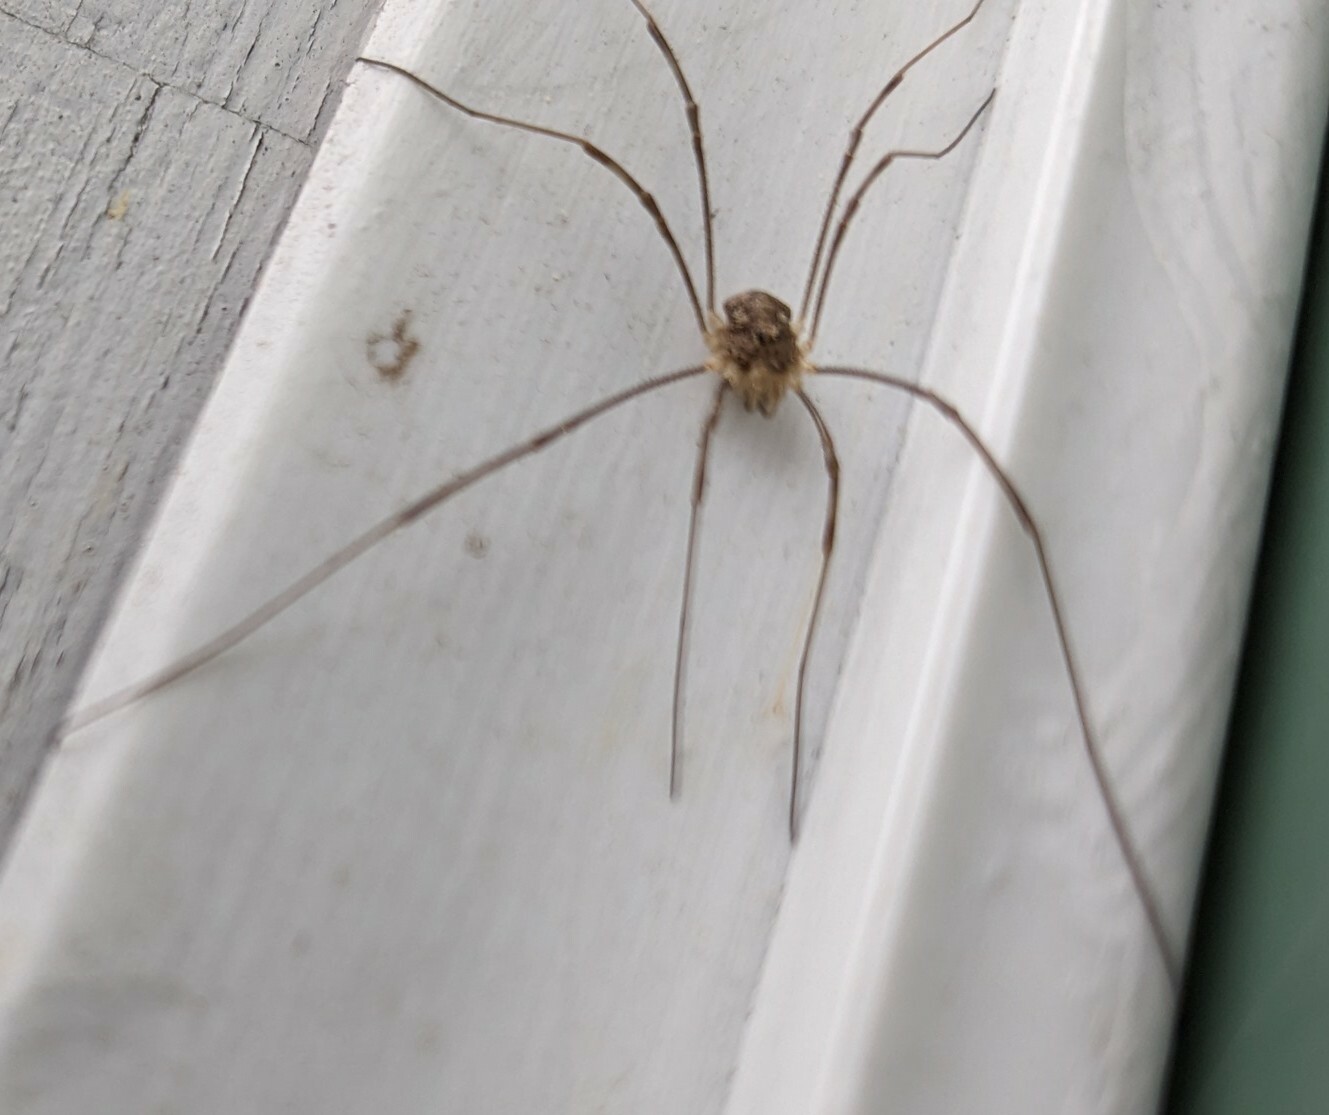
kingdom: Animalia
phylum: Arthropoda
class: Arachnida
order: Opiliones
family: Phalangiidae
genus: Rilaena
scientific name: Rilaena triangularis
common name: Spring harvestman
